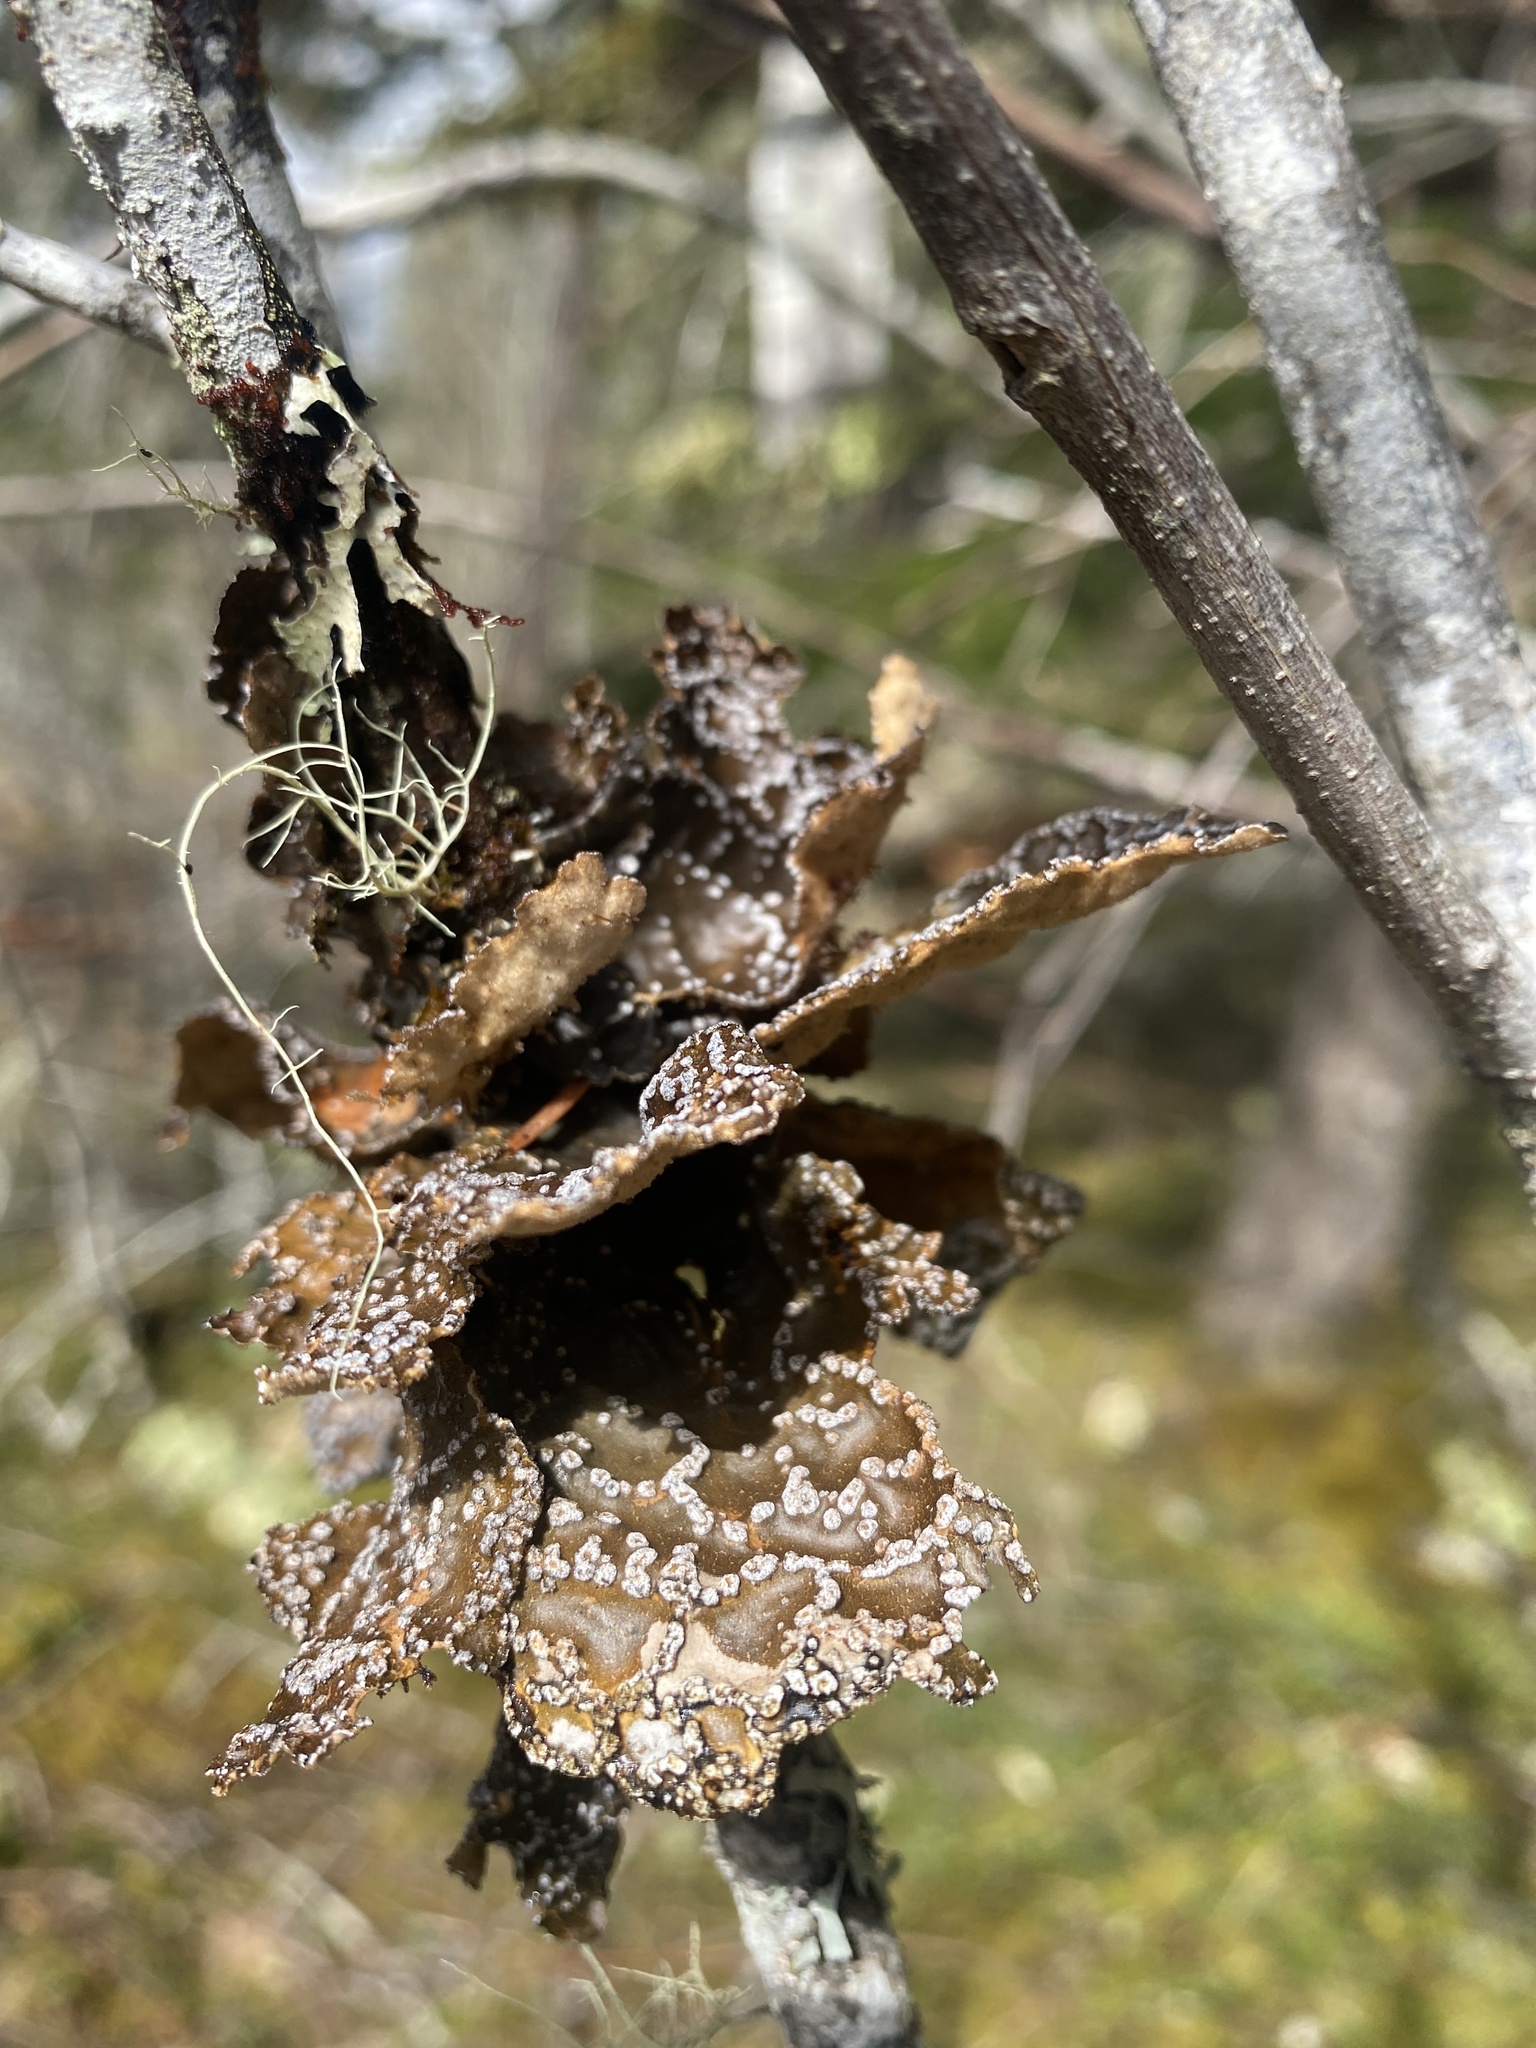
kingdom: Fungi
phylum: Ascomycota
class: Lecanoromycetes
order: Peltigerales
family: Lobariaceae
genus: Lobaria
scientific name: Lobaria anomala
